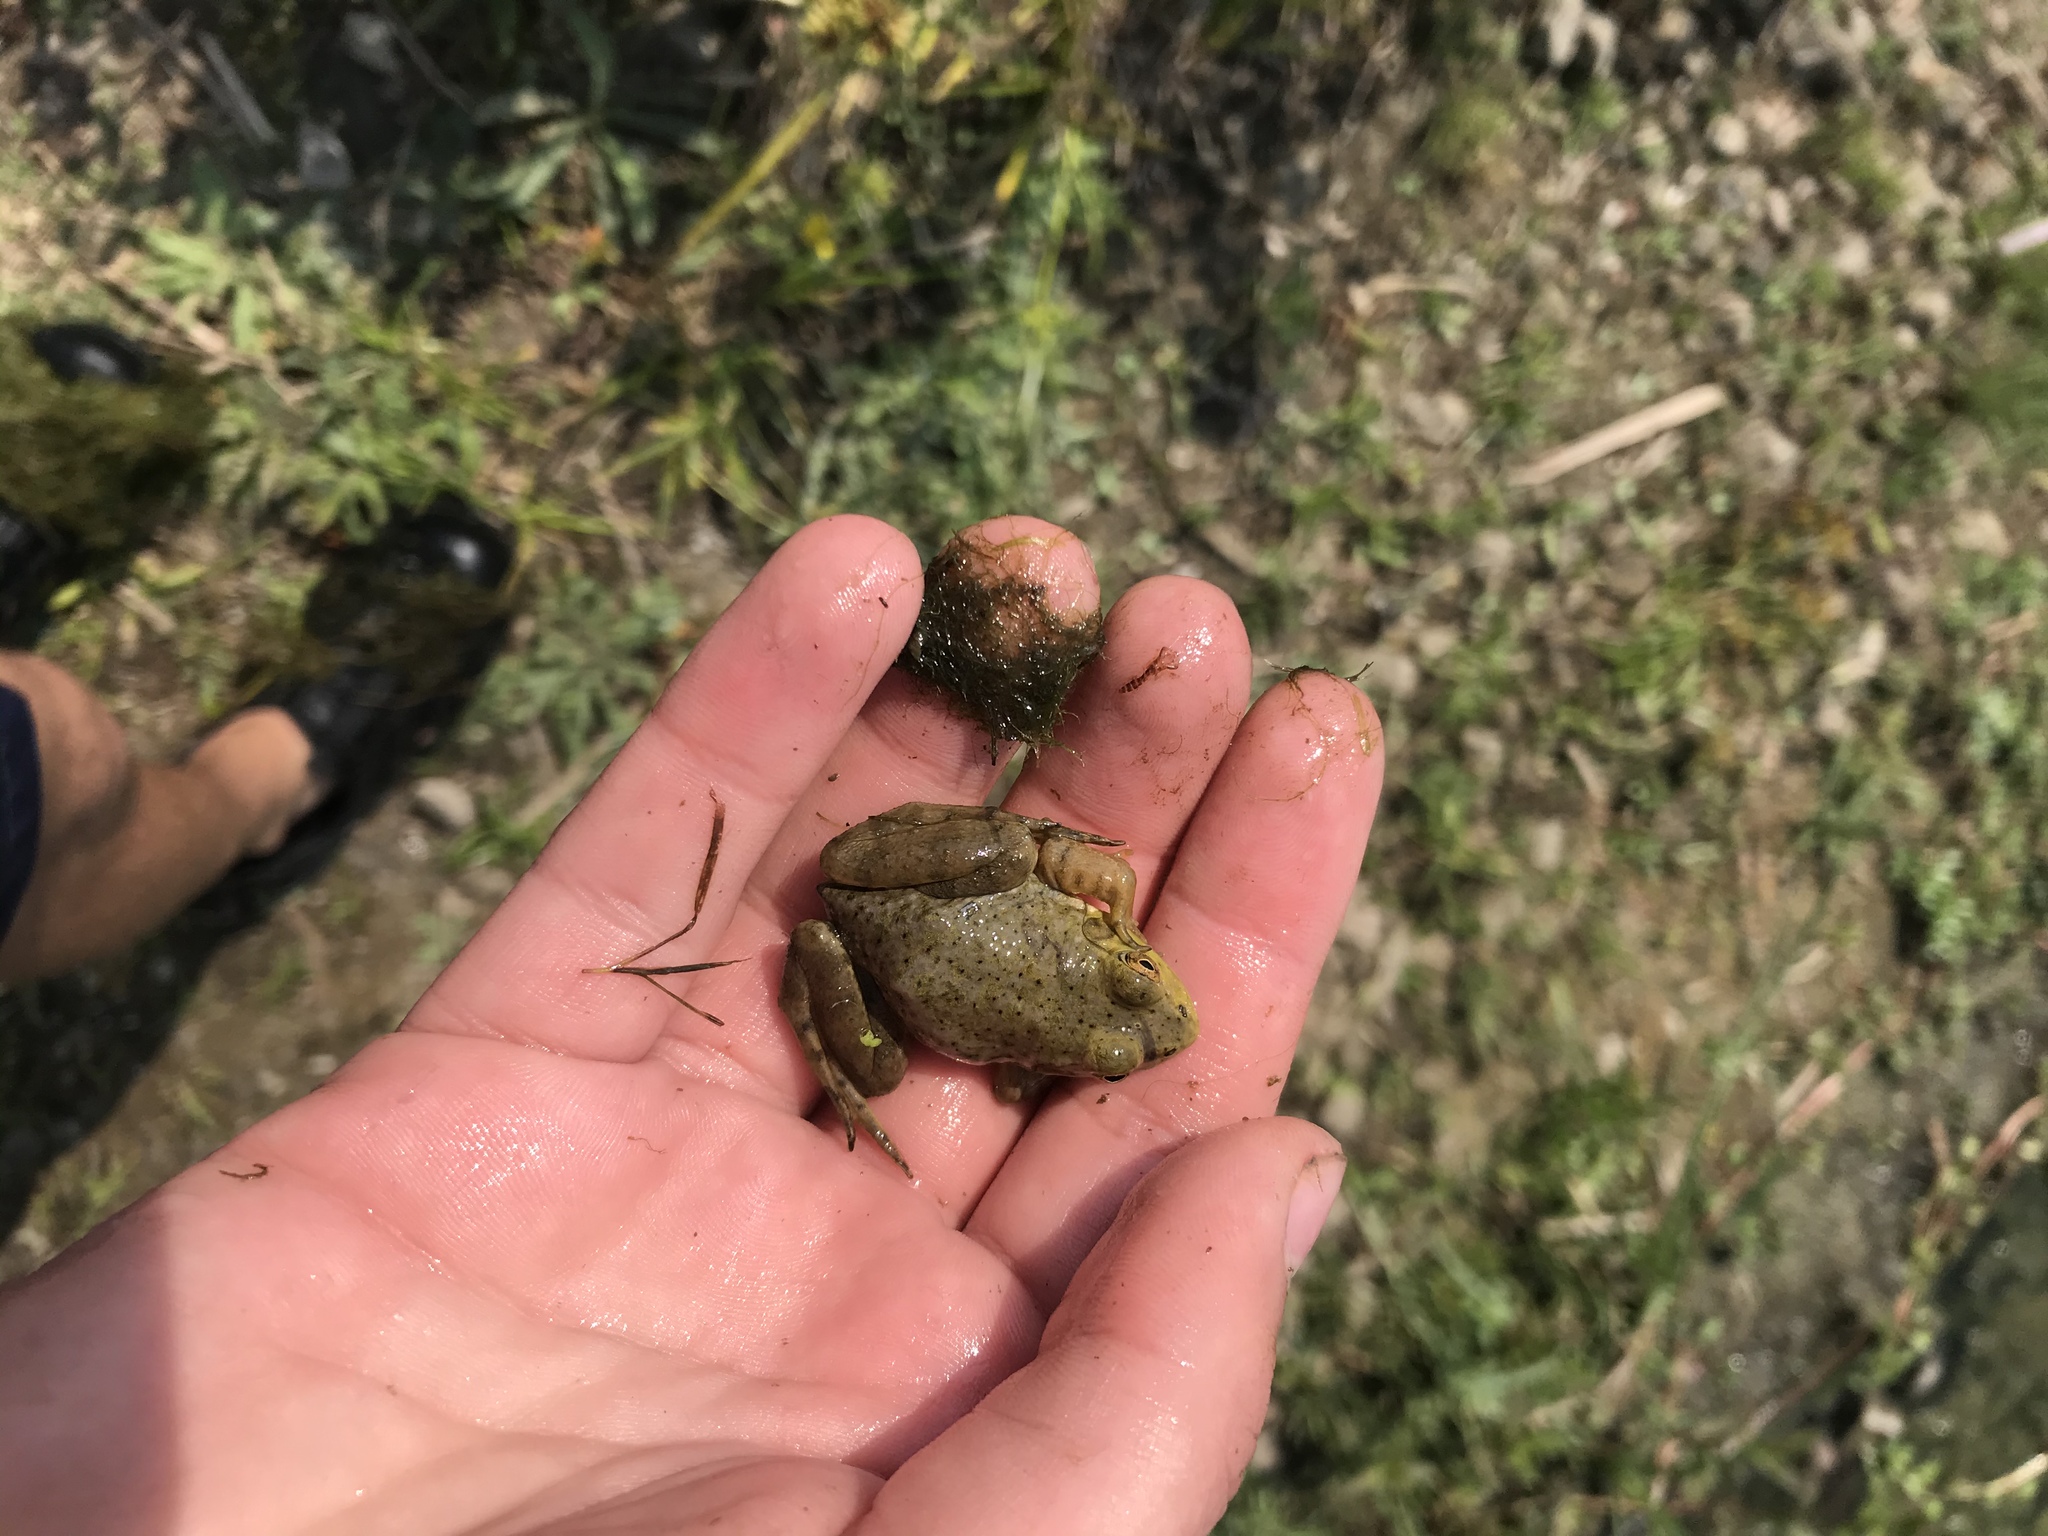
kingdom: Animalia
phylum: Chordata
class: Amphibia
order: Anura
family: Ranidae
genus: Lithobates
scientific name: Lithobates catesbeianus
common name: American bullfrog
